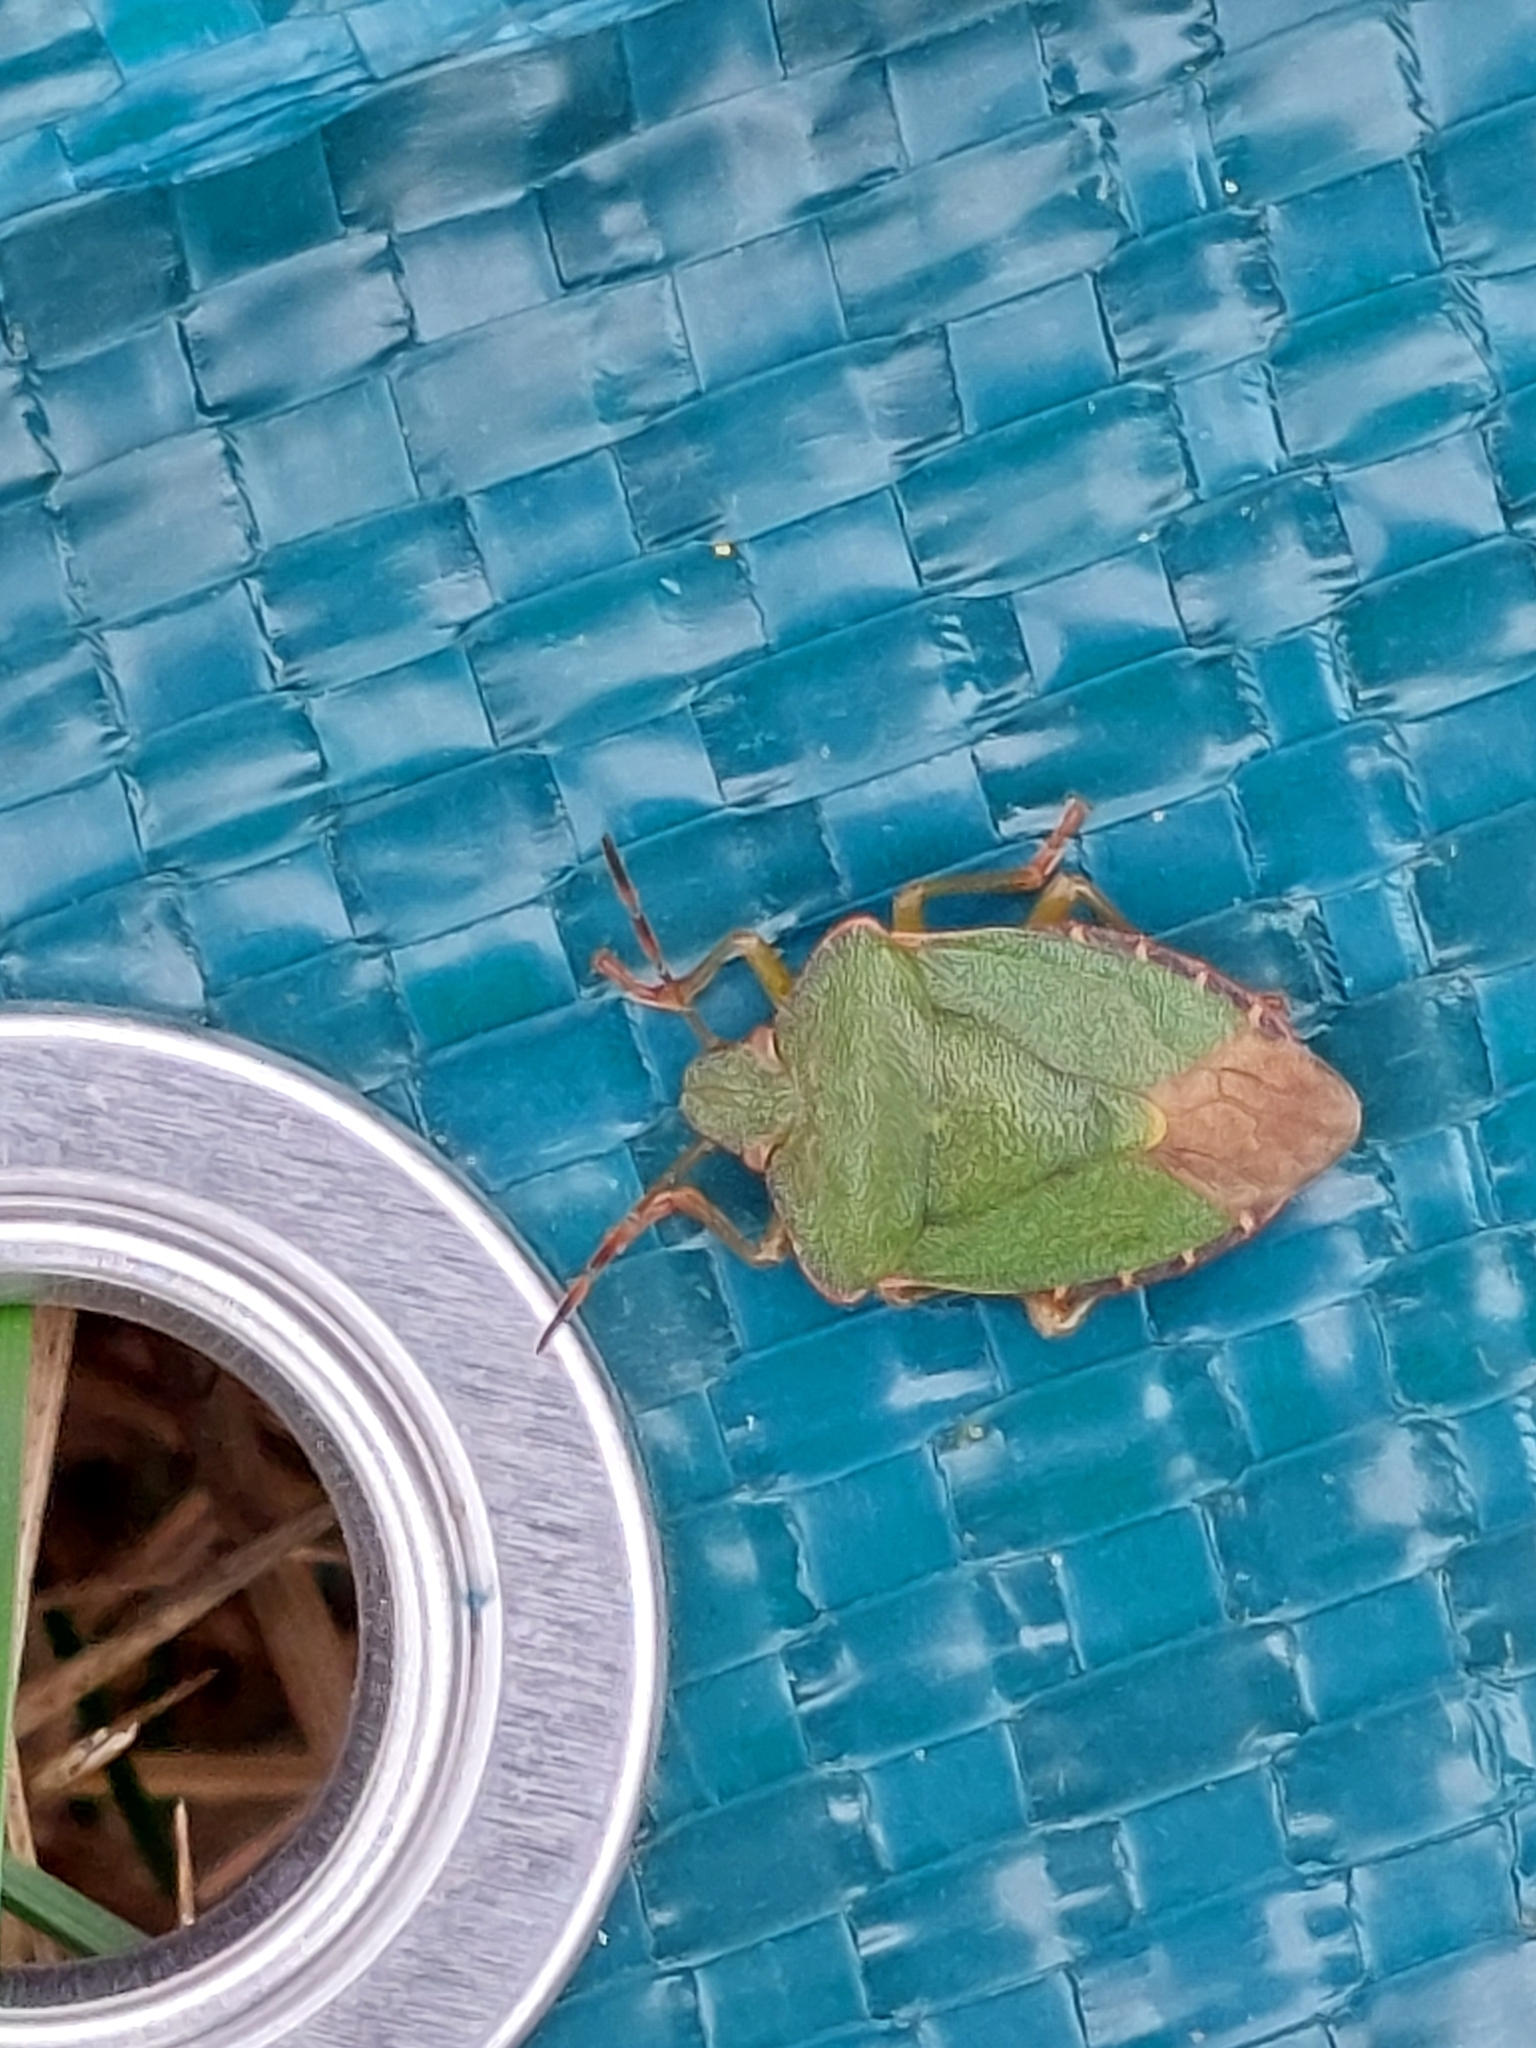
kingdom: Animalia
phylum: Arthropoda
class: Insecta
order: Hemiptera
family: Pentatomidae
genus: Palomena
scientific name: Palomena prasina
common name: Green shieldbug
